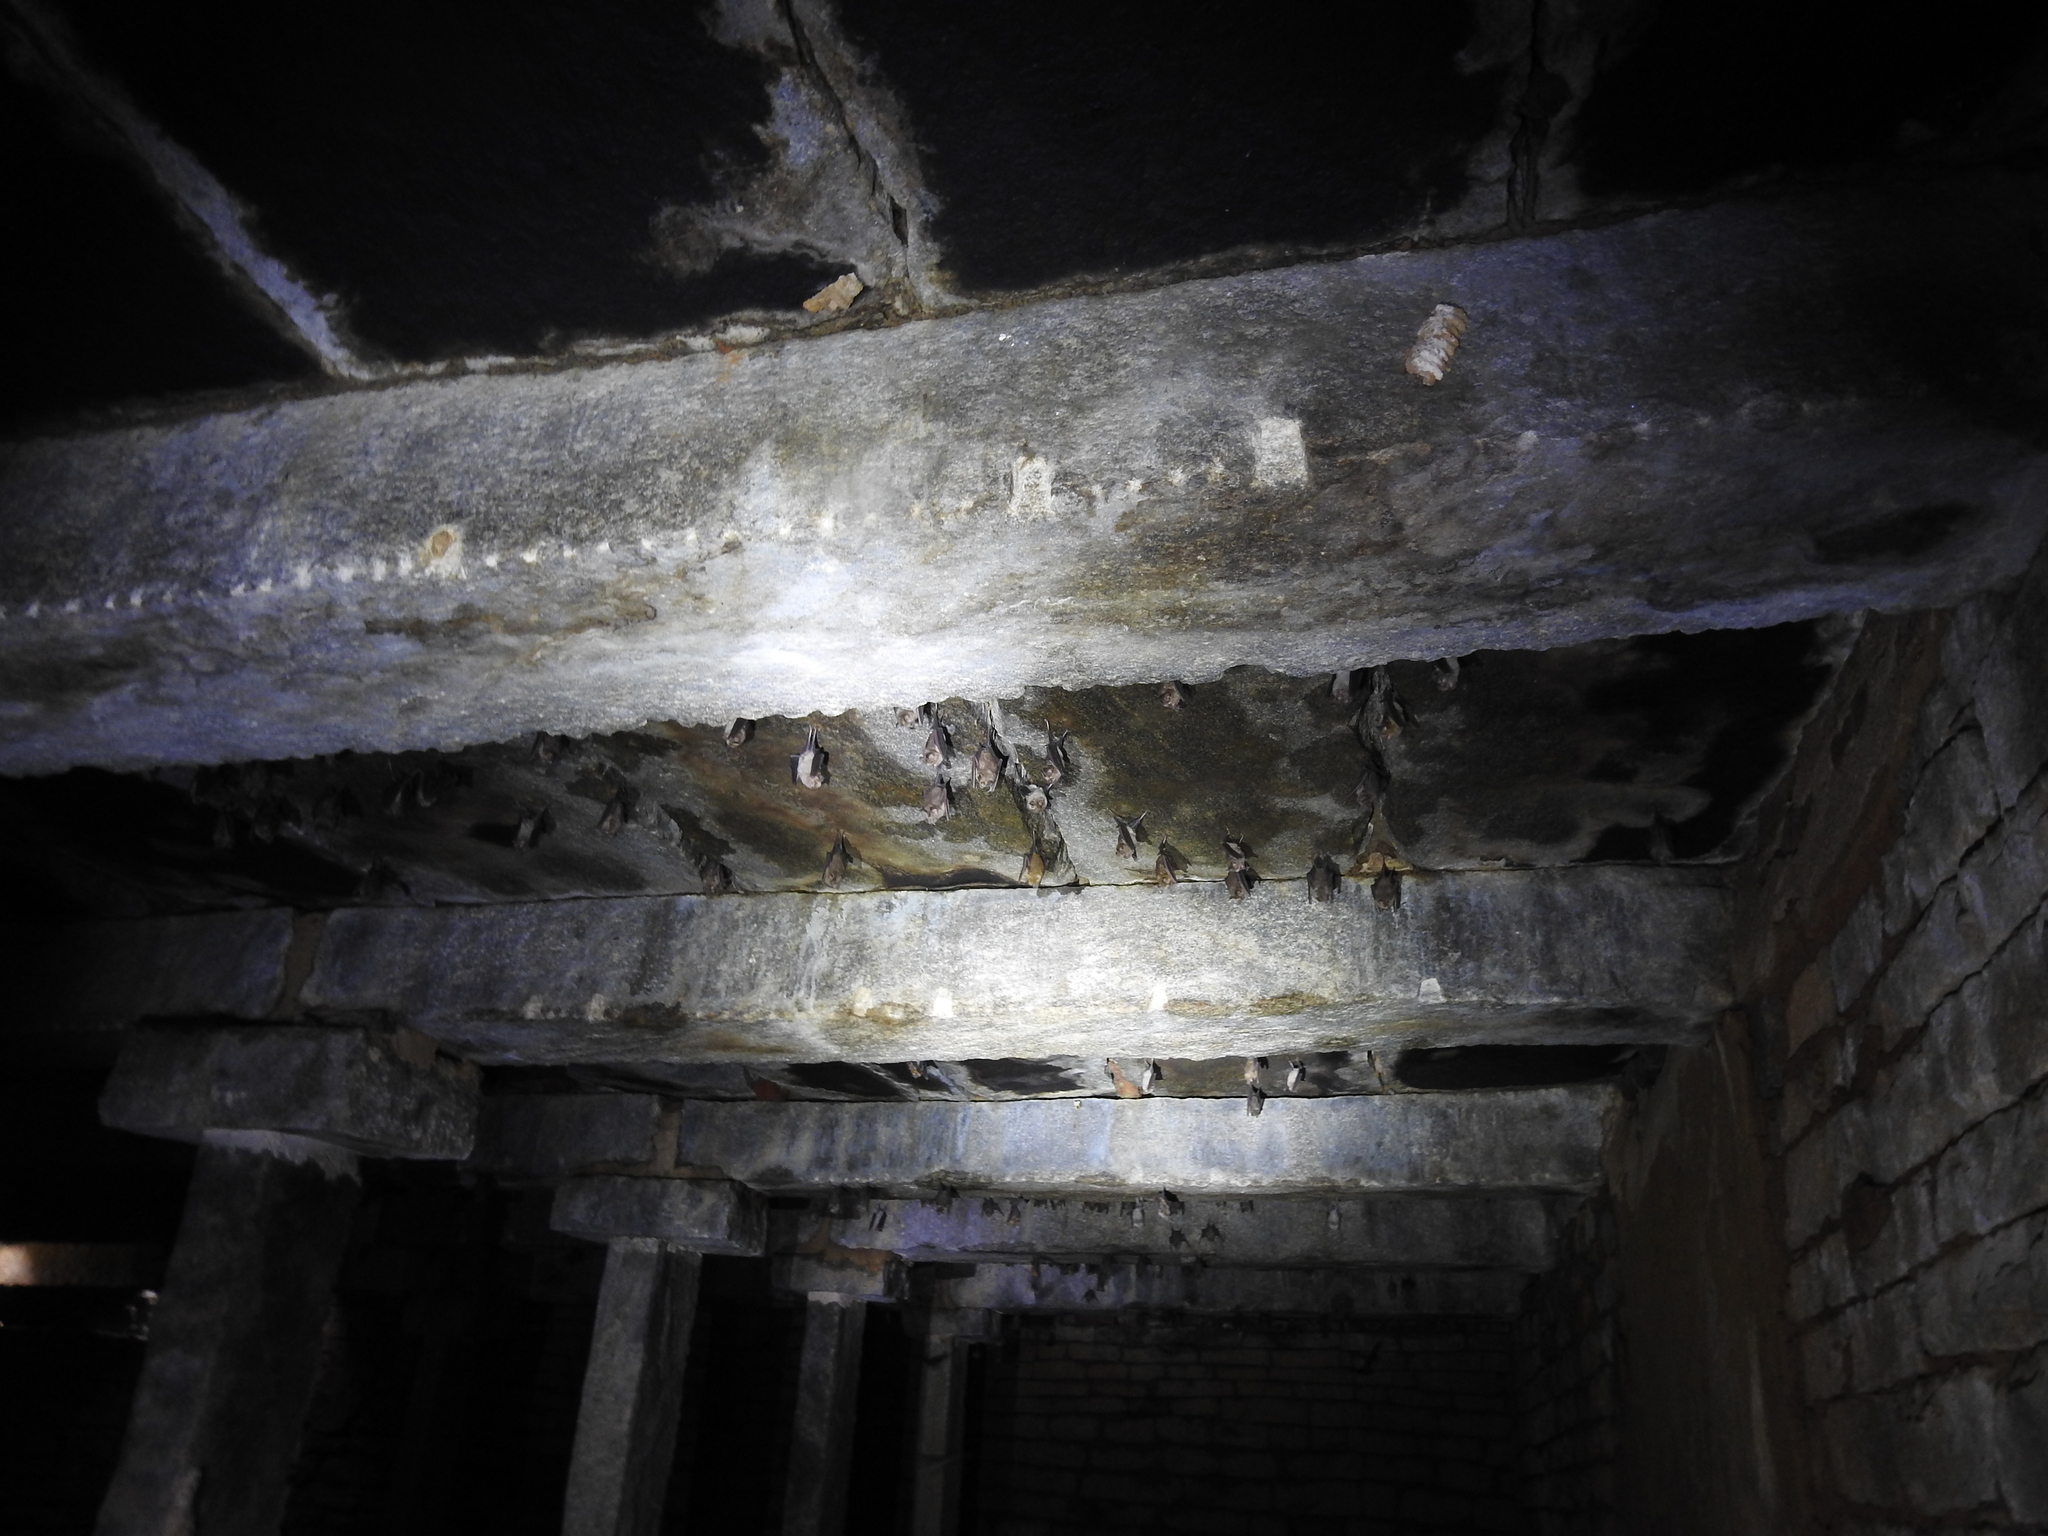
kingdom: Animalia
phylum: Chordata
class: Mammalia
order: Chiroptera
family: Hipposideridae
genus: Hipposideros
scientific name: Hipposideros speoris
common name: Schneider's roundleaf bat
